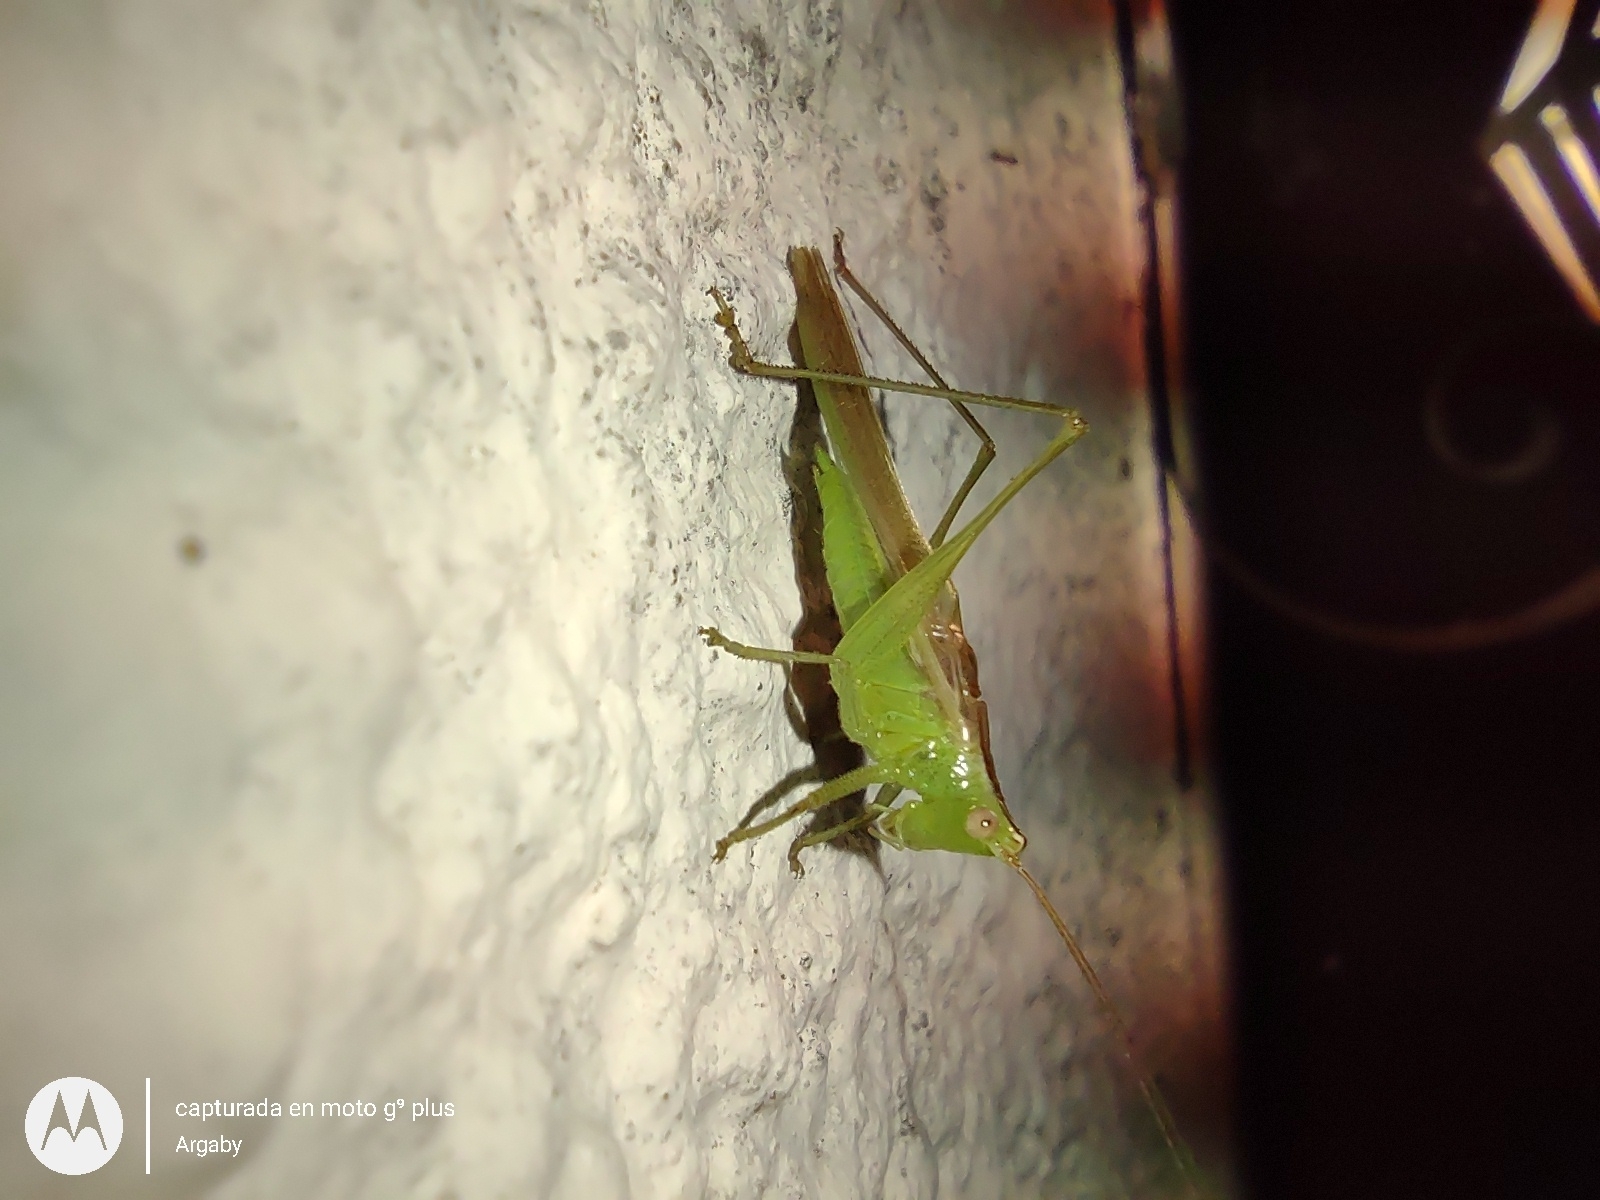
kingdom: Animalia
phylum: Arthropoda
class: Insecta
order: Orthoptera
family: Tettigoniidae
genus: Conocephalus
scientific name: Conocephalus longipes
